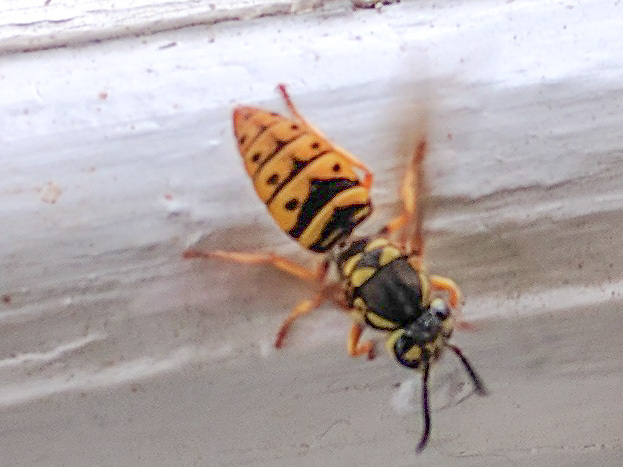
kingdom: Animalia
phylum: Arthropoda
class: Insecta
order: Hymenoptera
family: Vespidae
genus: Vespula
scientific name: Vespula maculifrons
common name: Eastern yellowjacket
